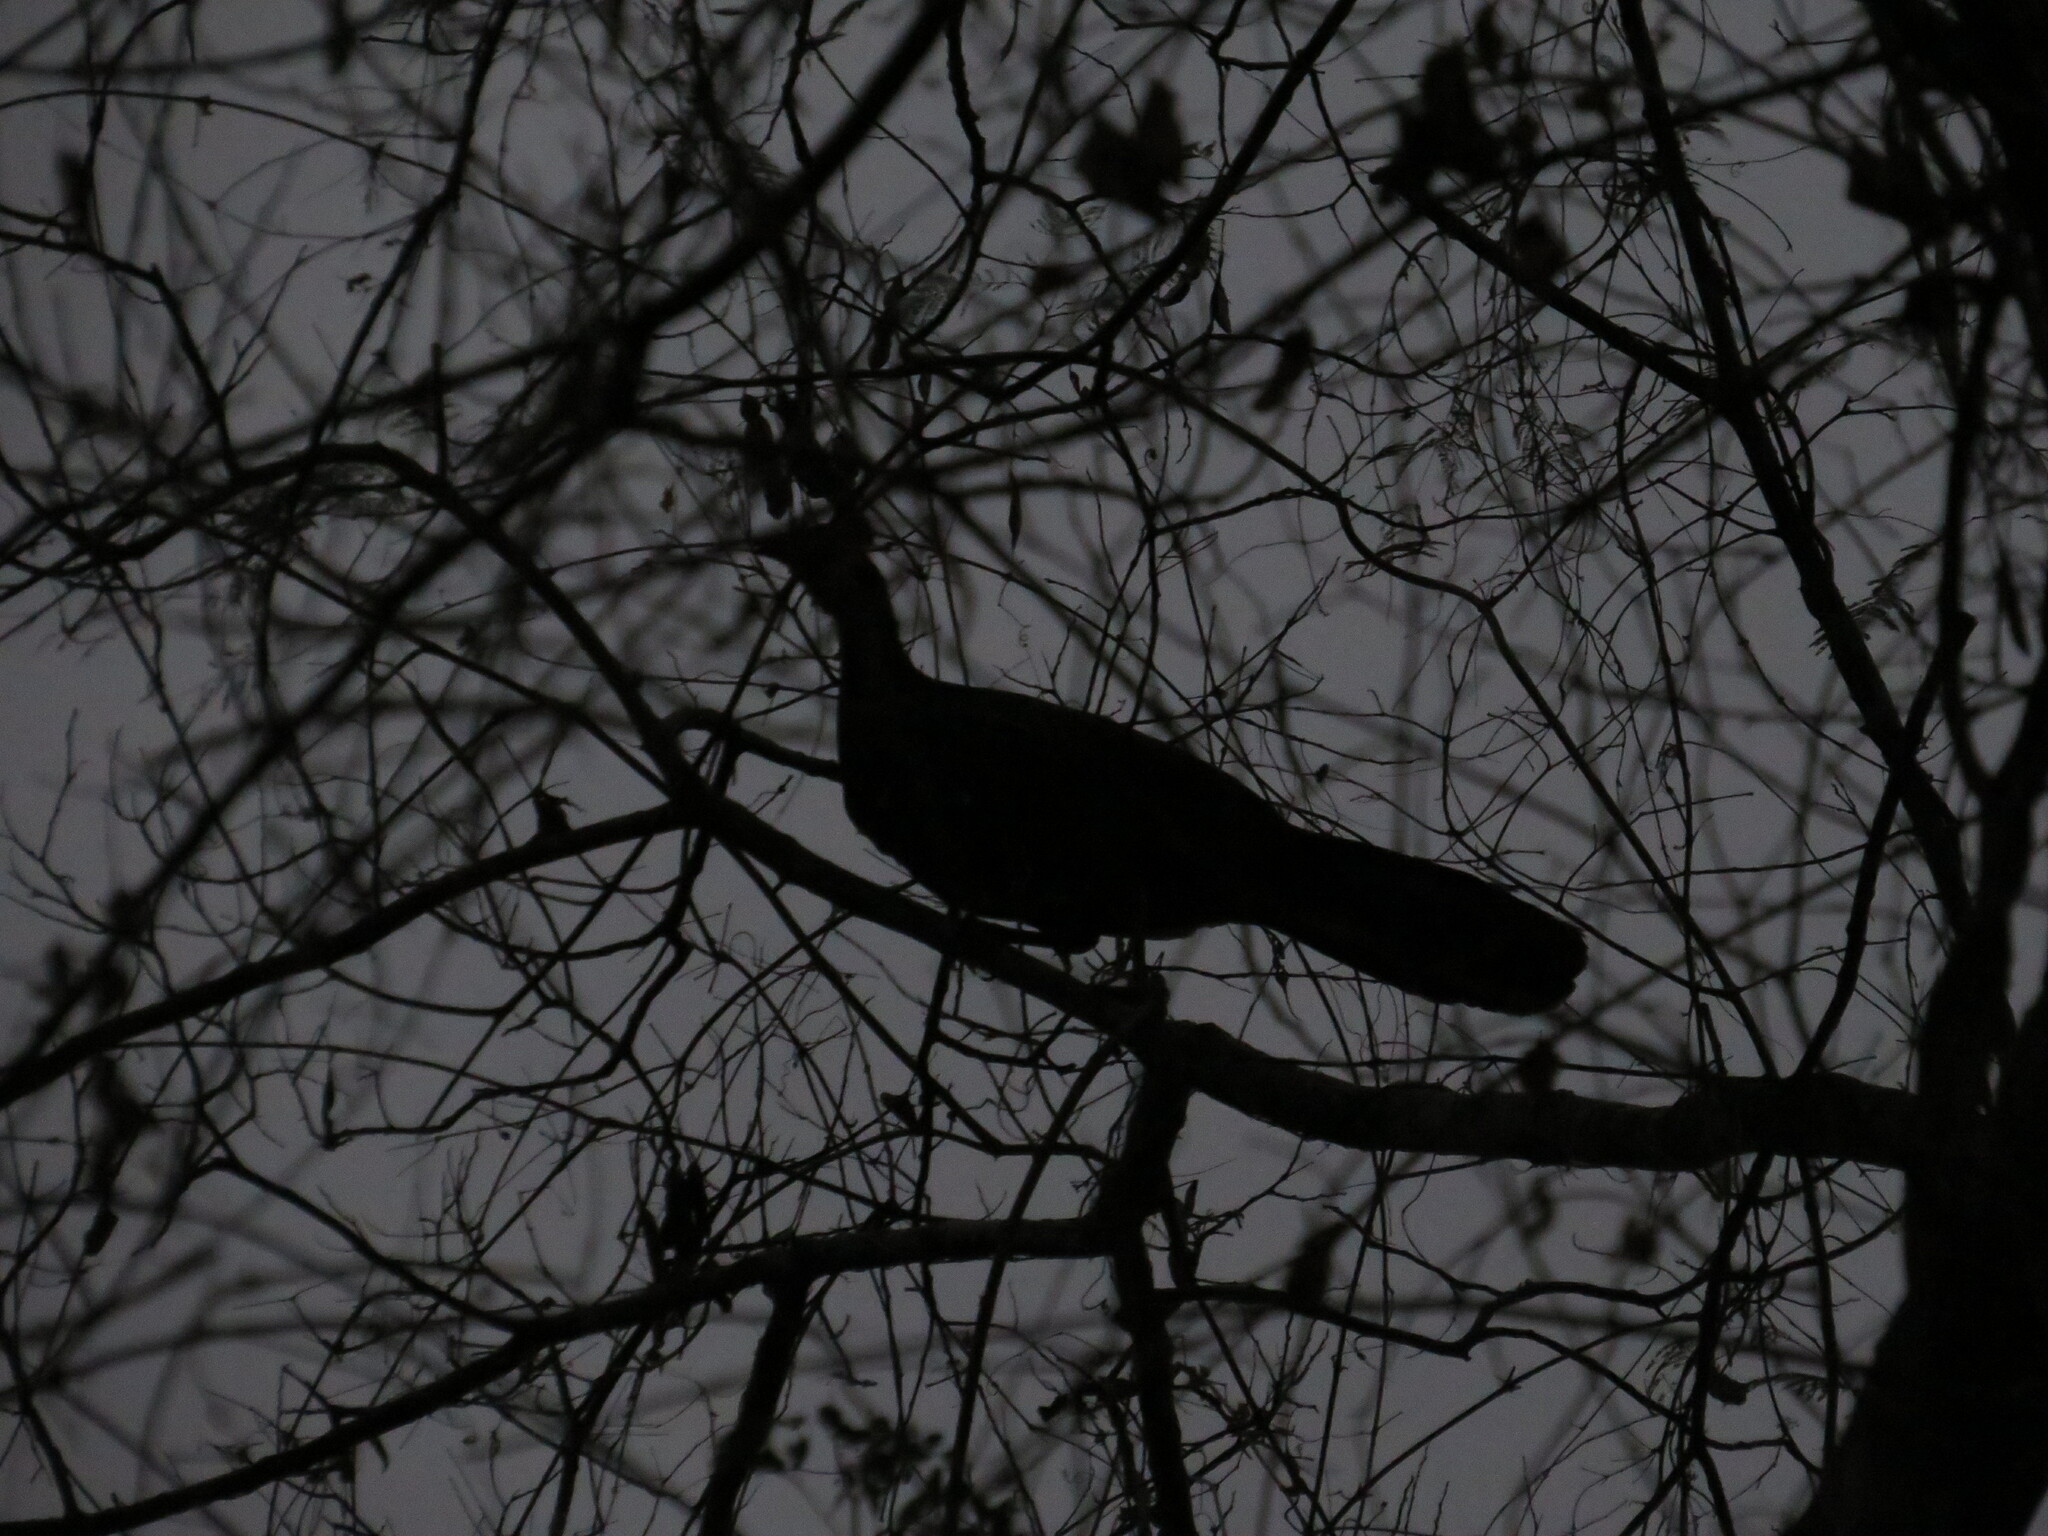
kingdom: Animalia
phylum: Chordata
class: Aves
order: Galliformes
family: Cracidae
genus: Penelope
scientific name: Penelope bridgesi
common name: Yungas guan
